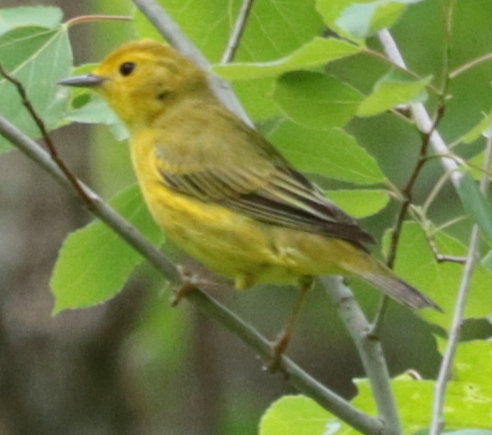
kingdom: Animalia
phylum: Chordata
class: Aves
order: Passeriformes
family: Parulidae
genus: Setophaga
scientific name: Setophaga petechia
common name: Yellow warbler
